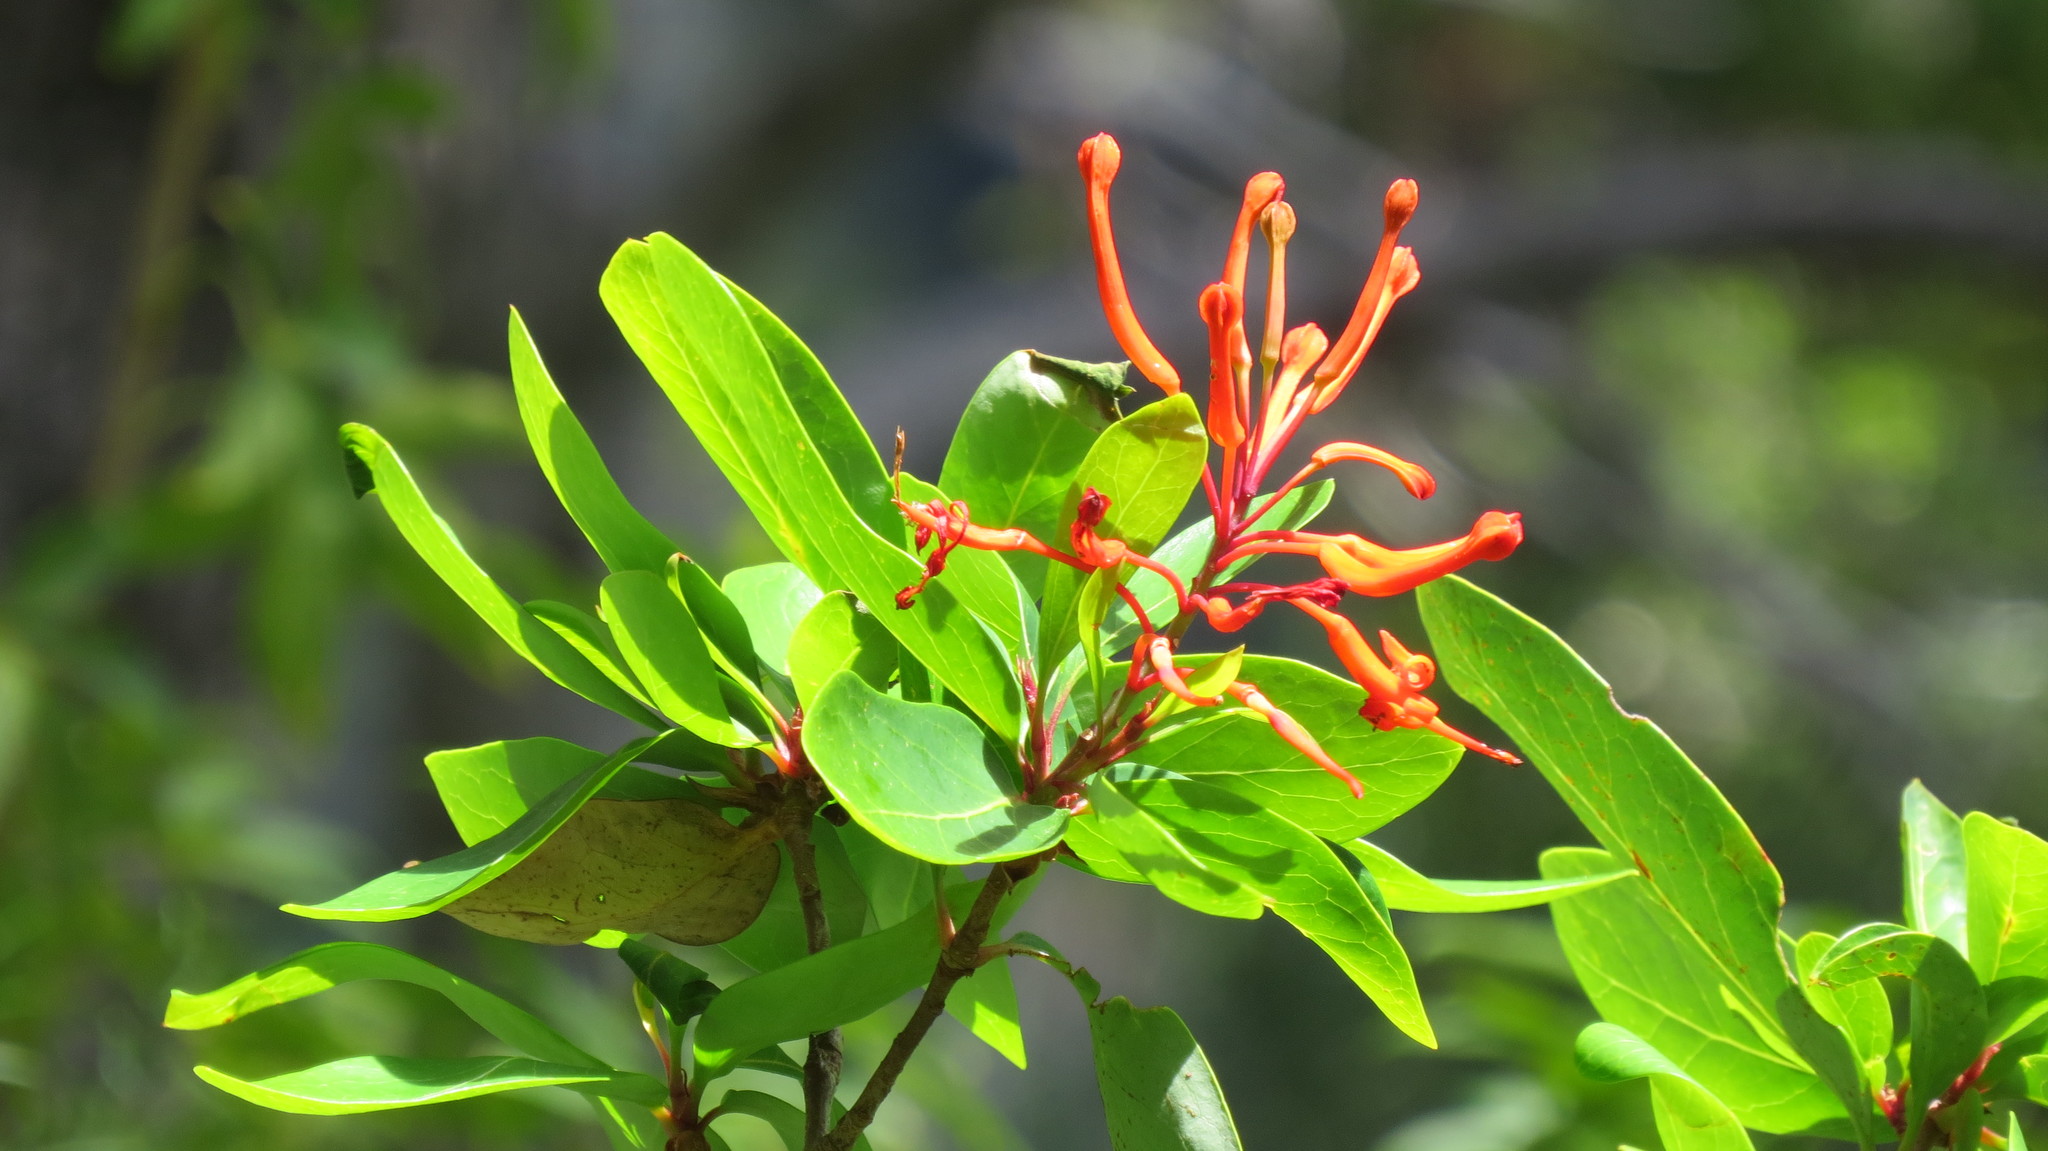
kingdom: Plantae
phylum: Tracheophyta
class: Magnoliopsida
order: Proteales
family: Proteaceae
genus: Embothrium
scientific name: Embothrium coccineum
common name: Chilean firebush
